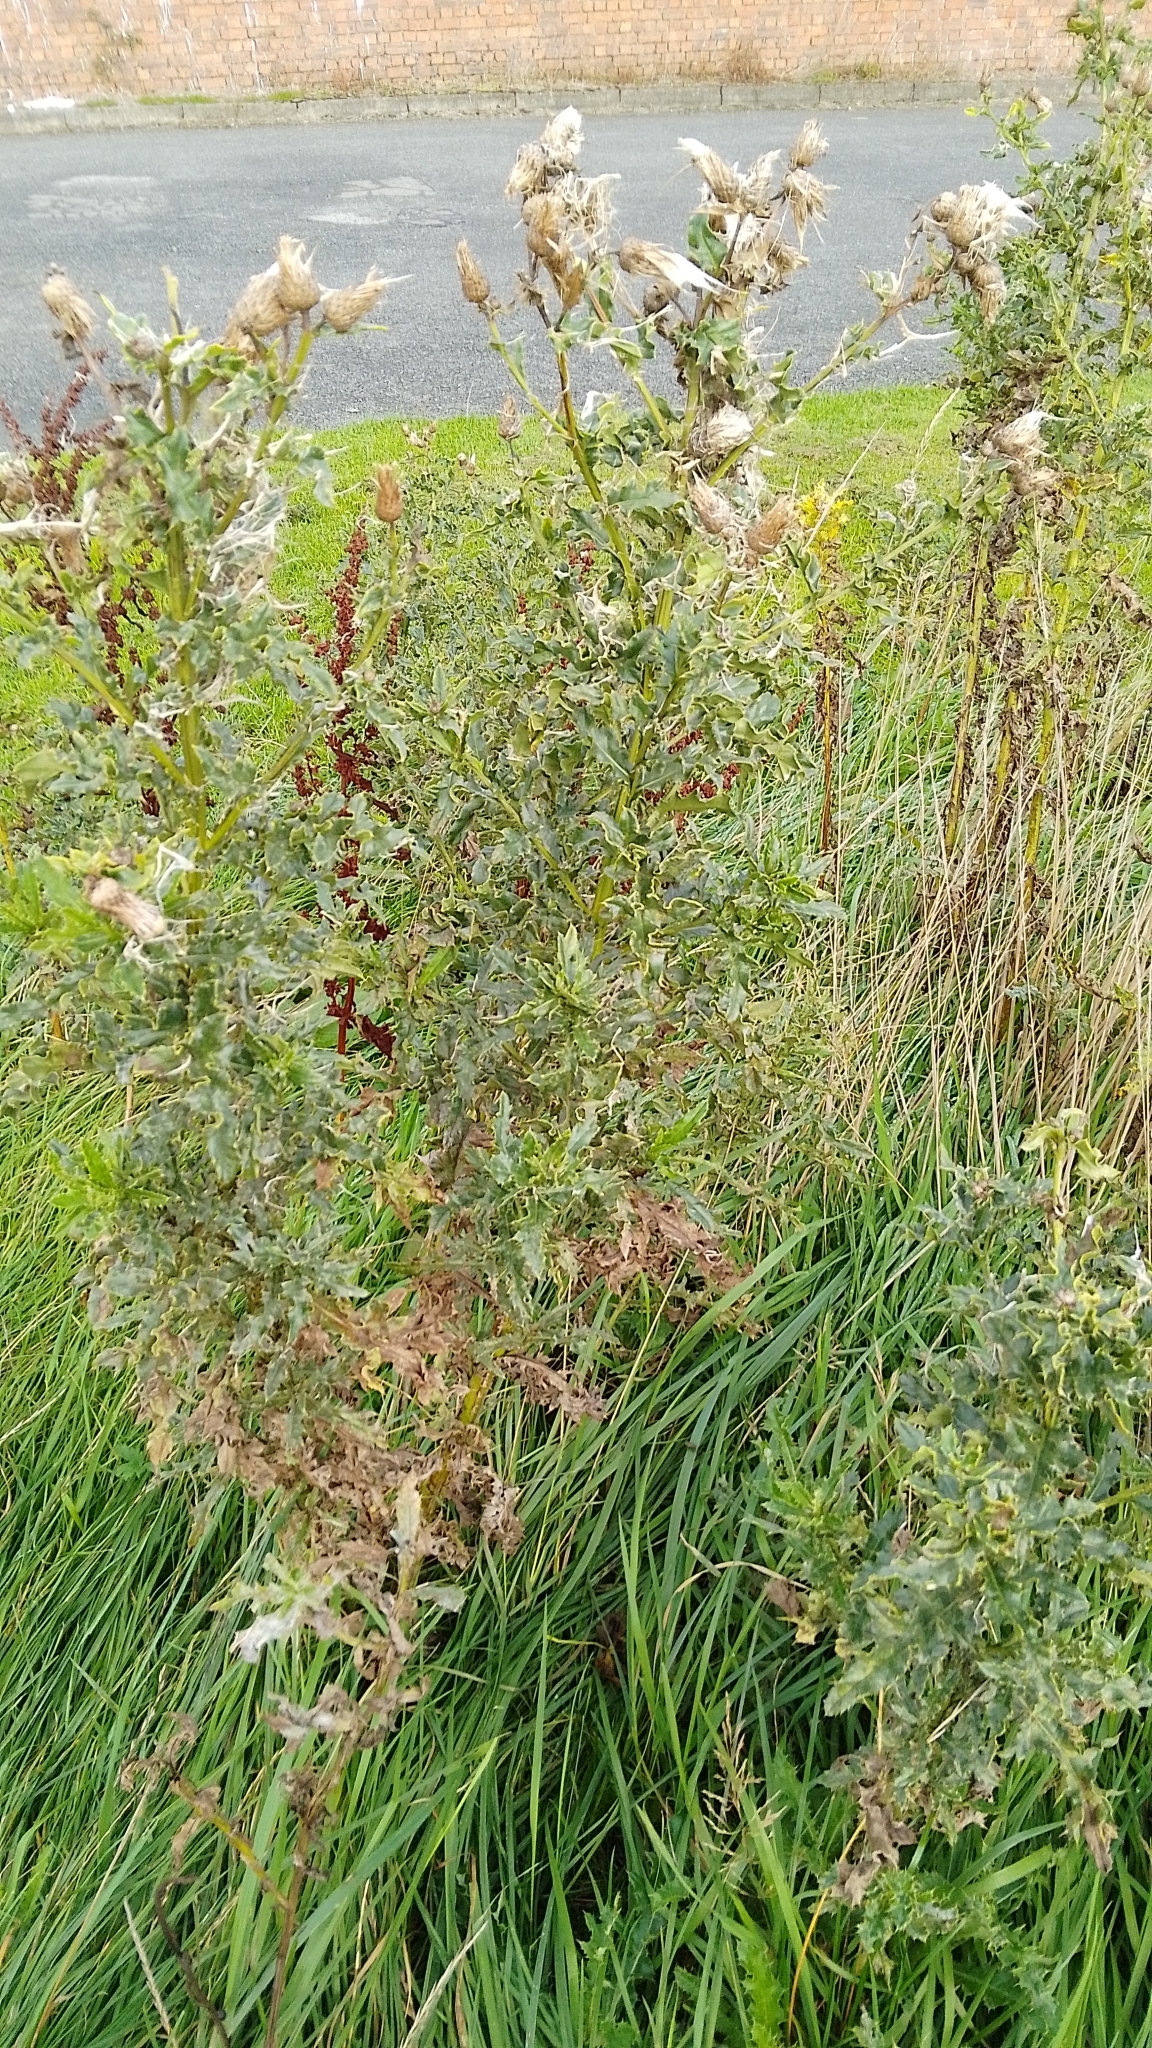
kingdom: Plantae
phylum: Tracheophyta
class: Magnoliopsida
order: Asterales
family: Asteraceae
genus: Cirsium
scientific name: Cirsium arvense
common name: Creeping thistle
